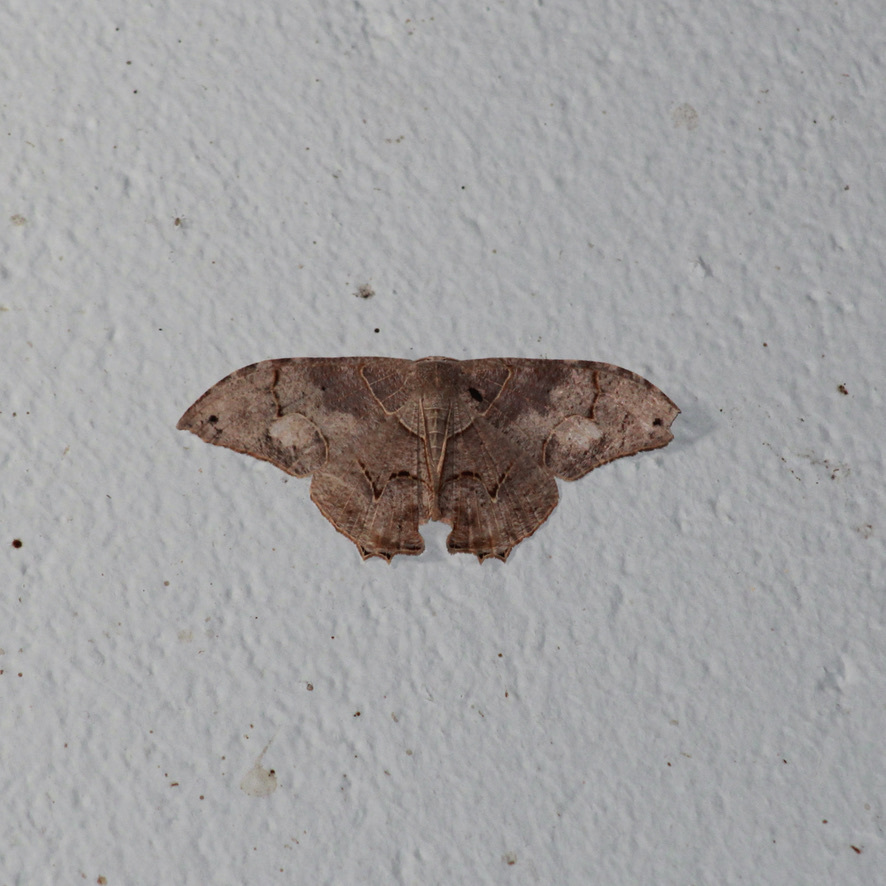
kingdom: Animalia
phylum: Arthropoda
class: Insecta
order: Lepidoptera
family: Uraniidae
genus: Syngria
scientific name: Syngria druidaria
